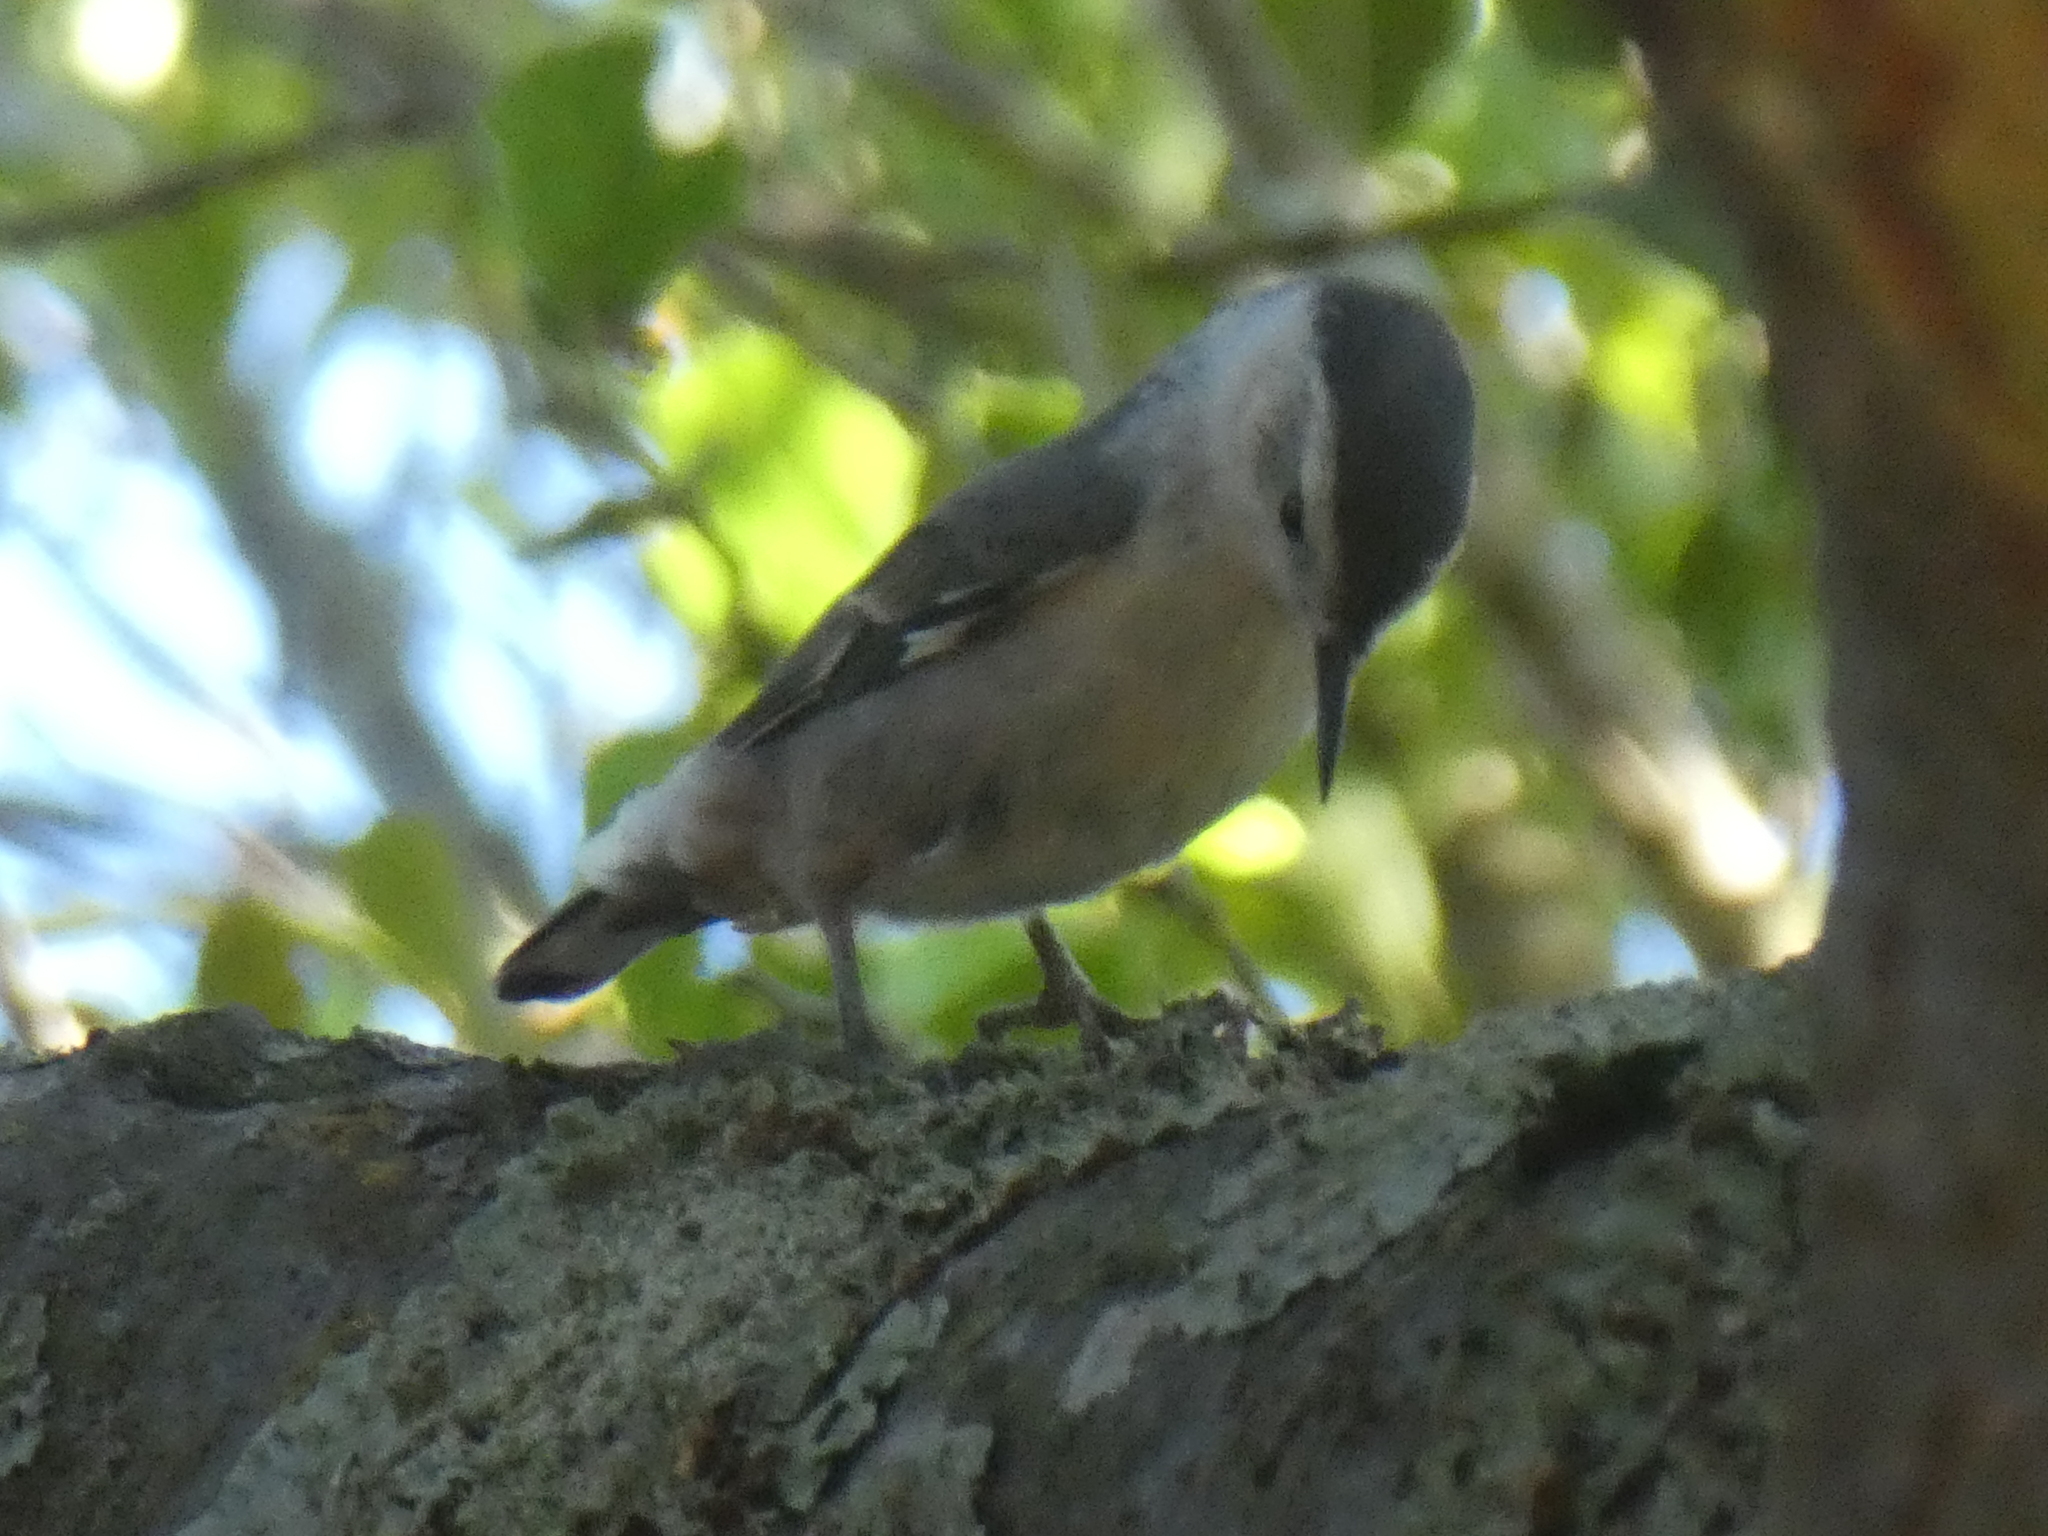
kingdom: Animalia
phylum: Chordata
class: Aves
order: Passeriformes
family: Sittidae
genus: Sitta
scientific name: Sitta carolinensis
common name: White-breasted nuthatch
